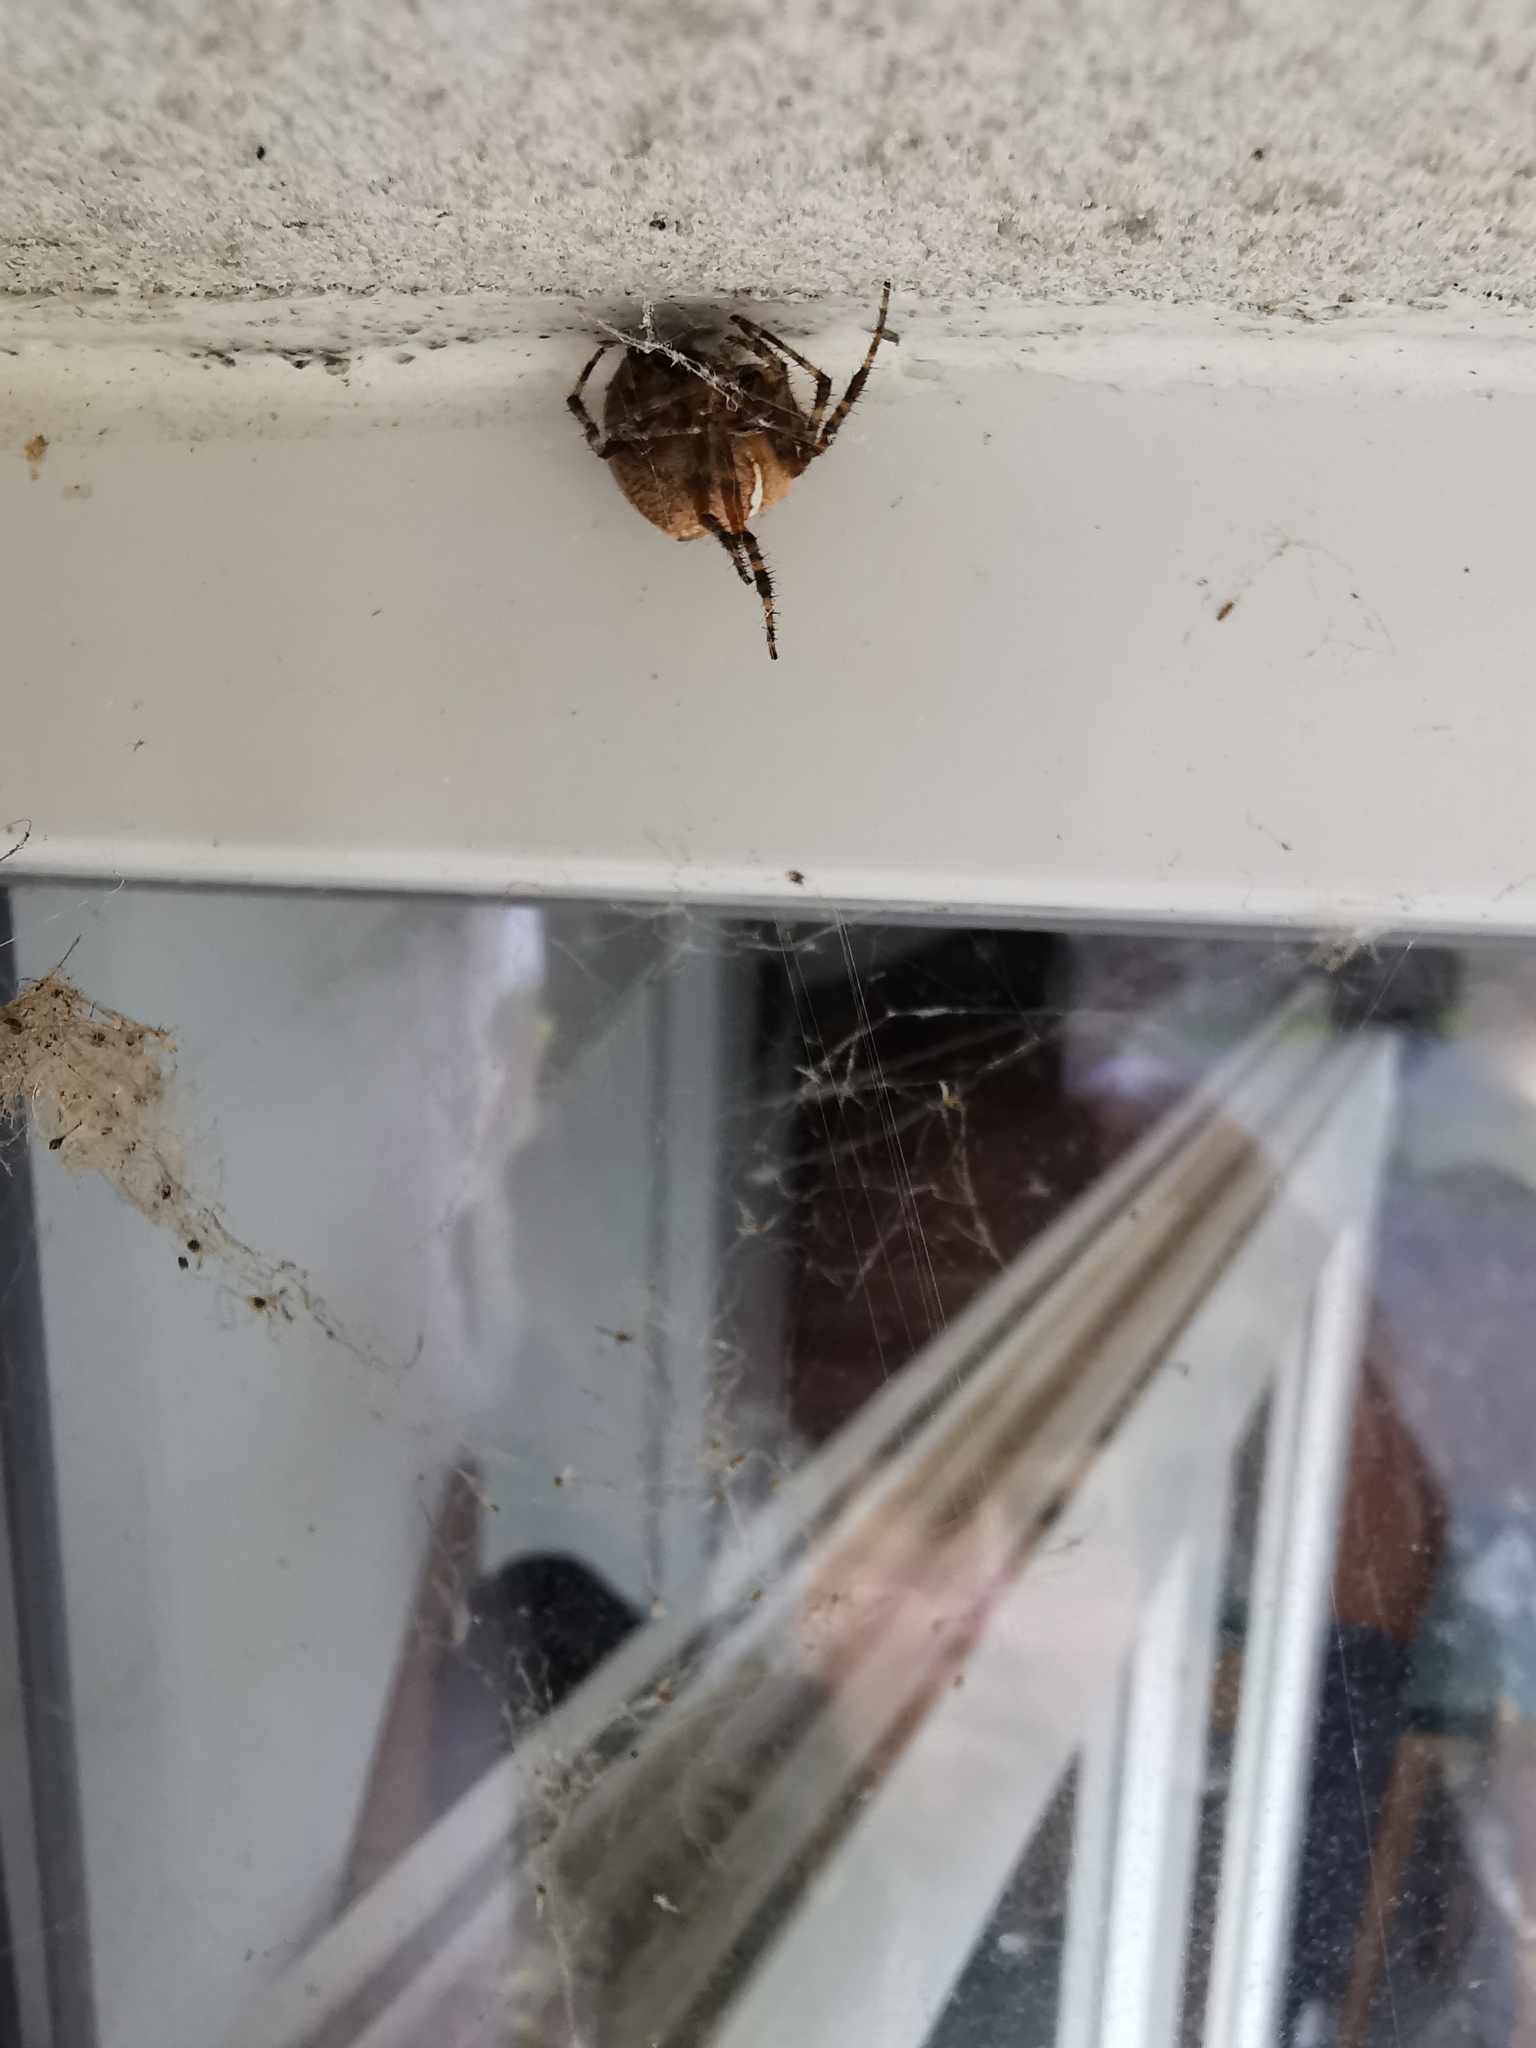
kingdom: Animalia
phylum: Arthropoda
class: Arachnida
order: Araneae
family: Araneidae
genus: Araneus
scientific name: Araneus diadematus
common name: Cross orbweaver
